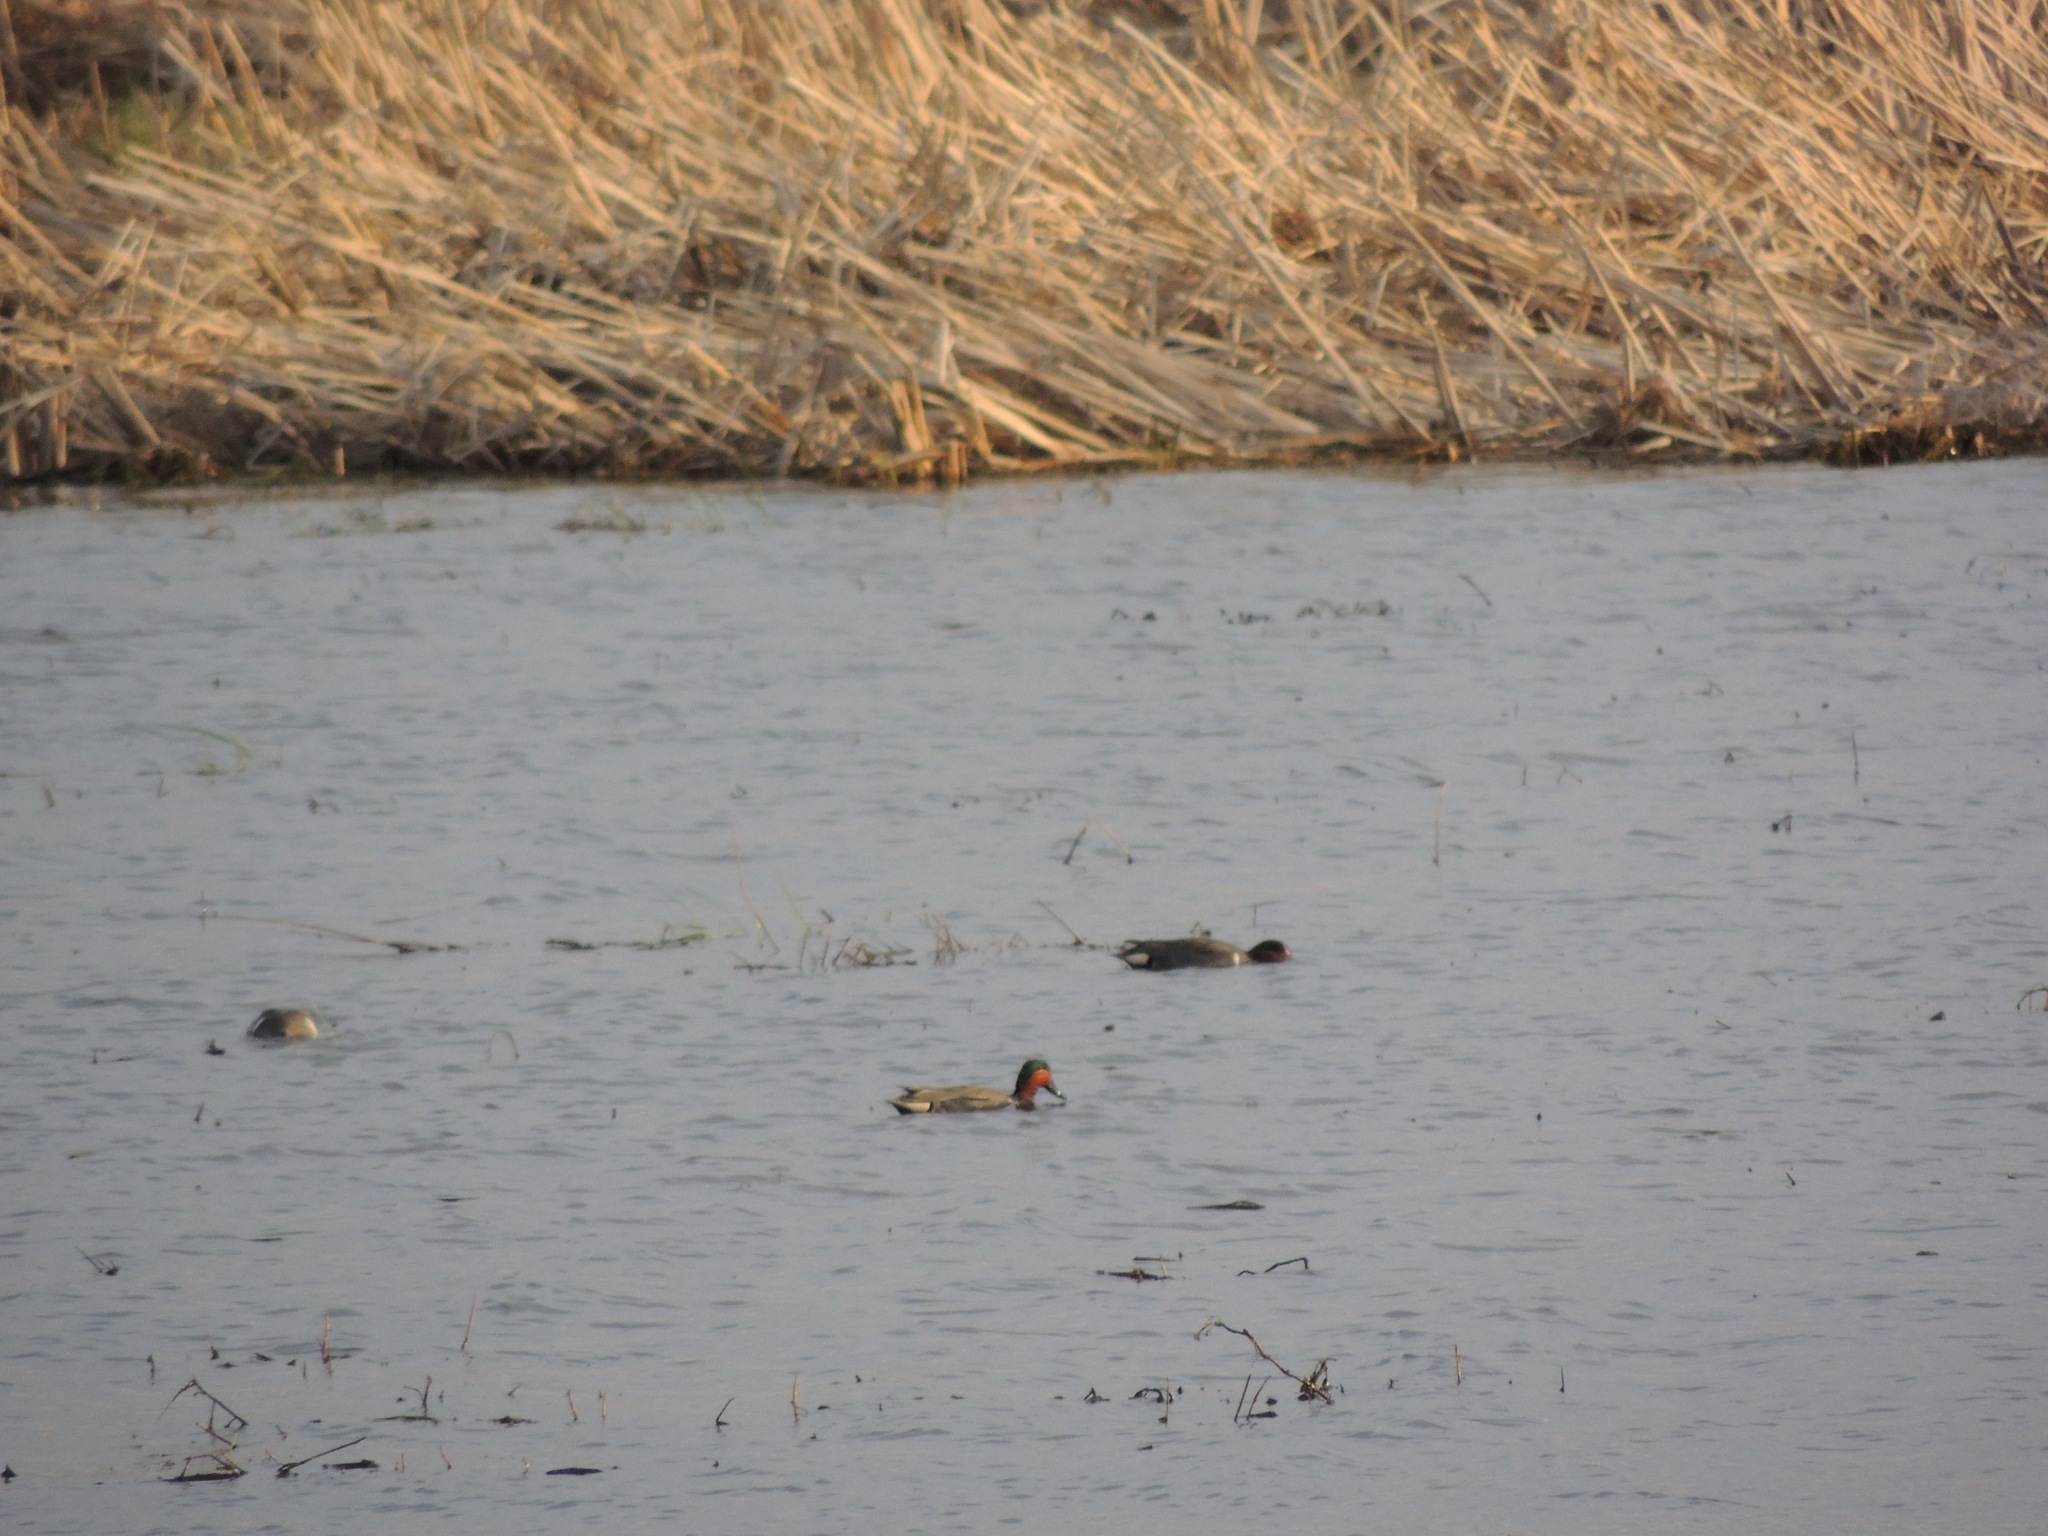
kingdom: Animalia
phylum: Chordata
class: Aves
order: Anseriformes
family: Anatidae
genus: Anas
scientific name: Anas crecca
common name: Eurasian teal
